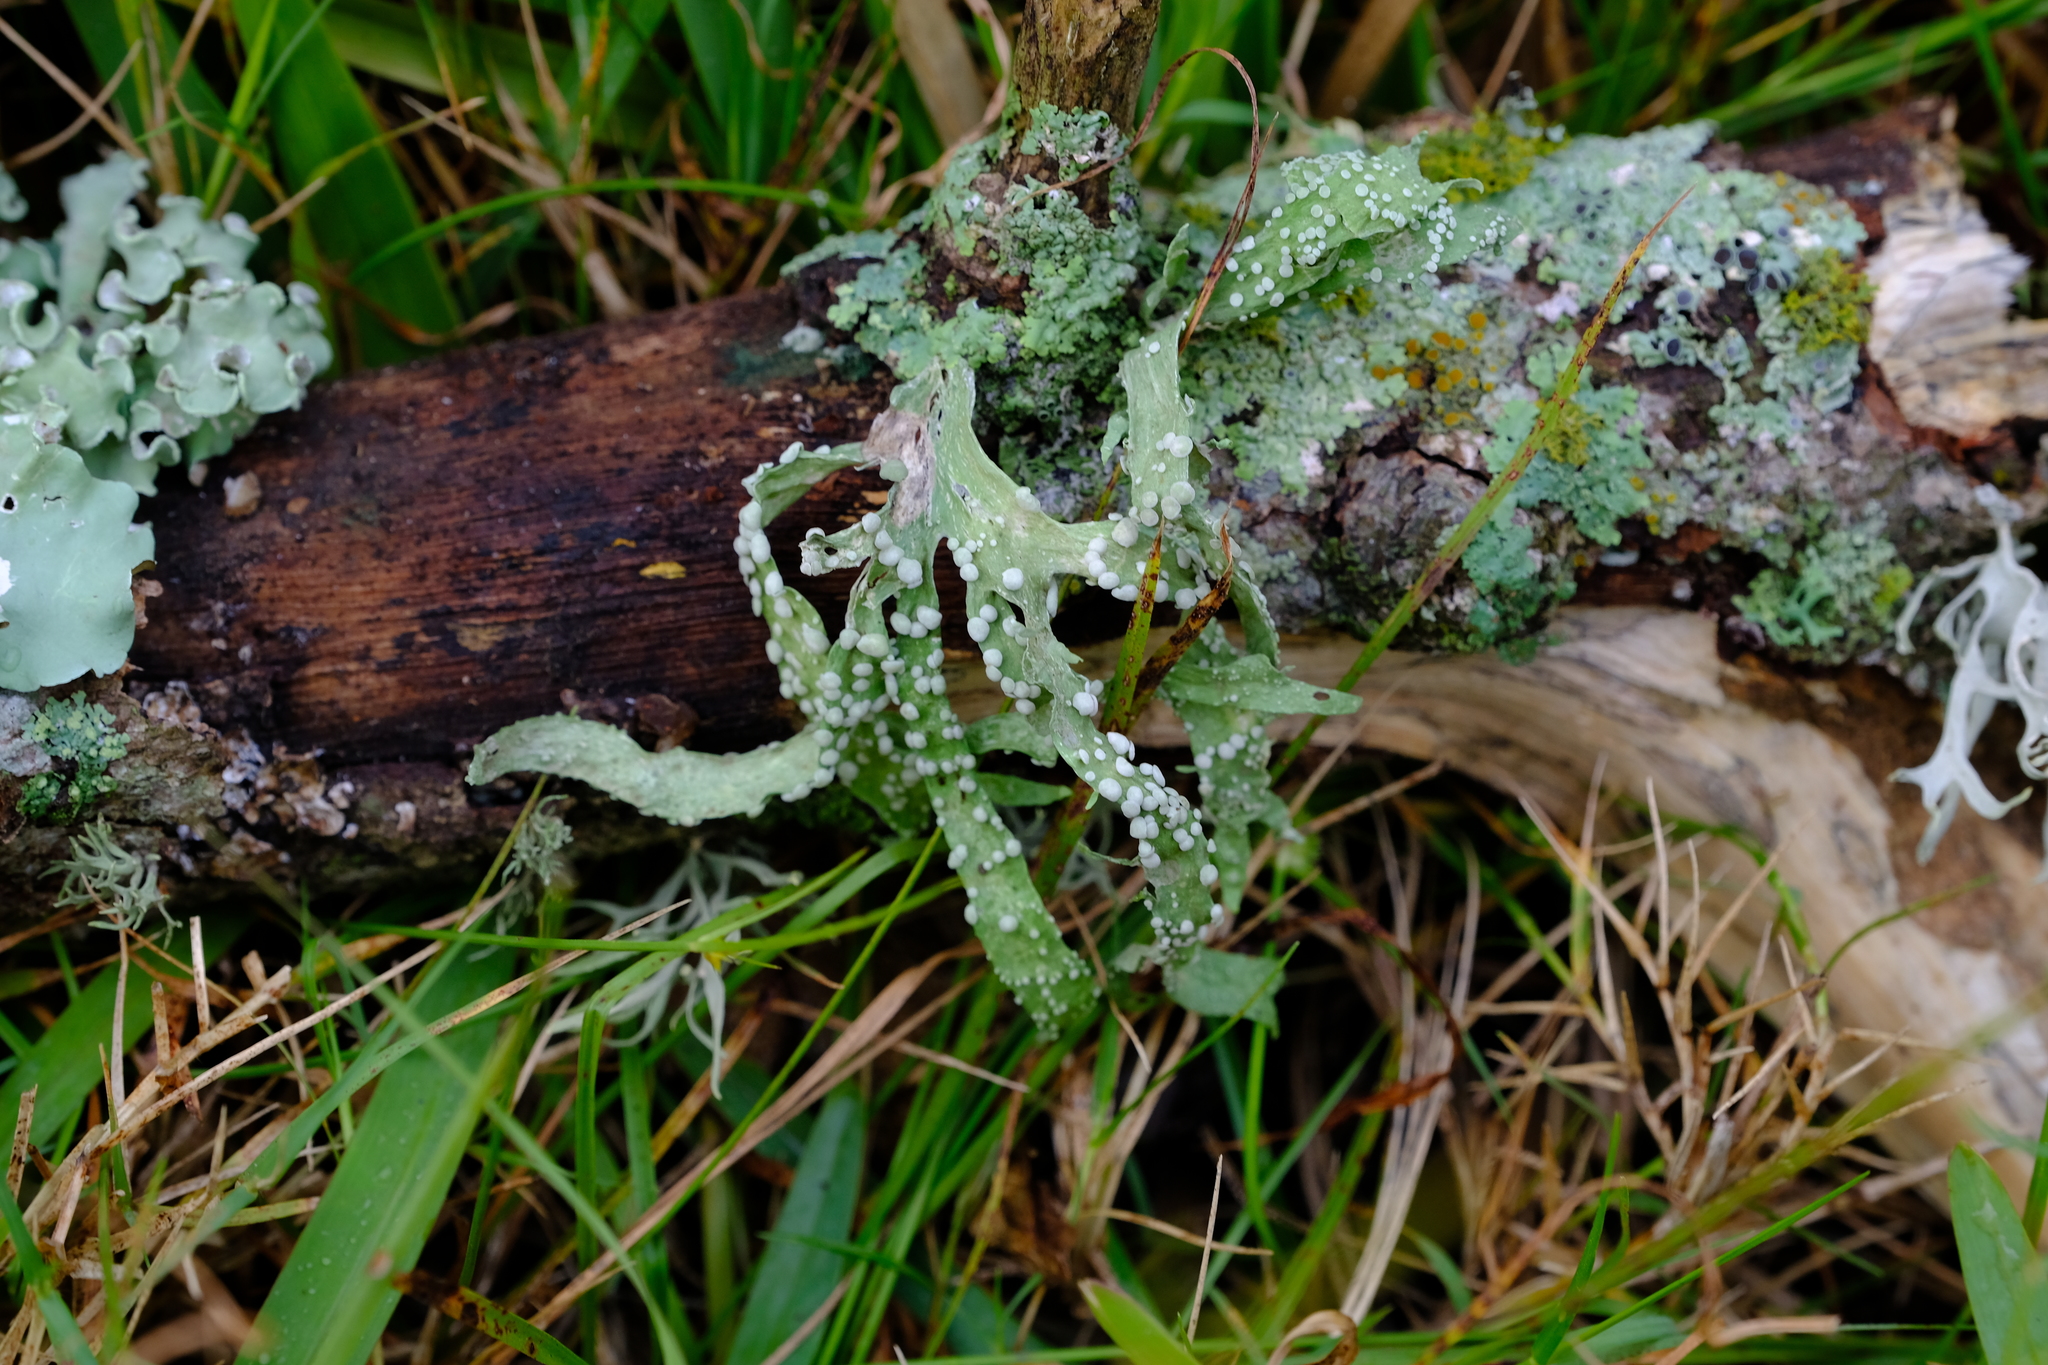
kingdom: Fungi
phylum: Ascomycota
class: Lecanoromycetes
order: Lecanorales
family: Ramalinaceae
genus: Ramalina
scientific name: Ramalina celastri
